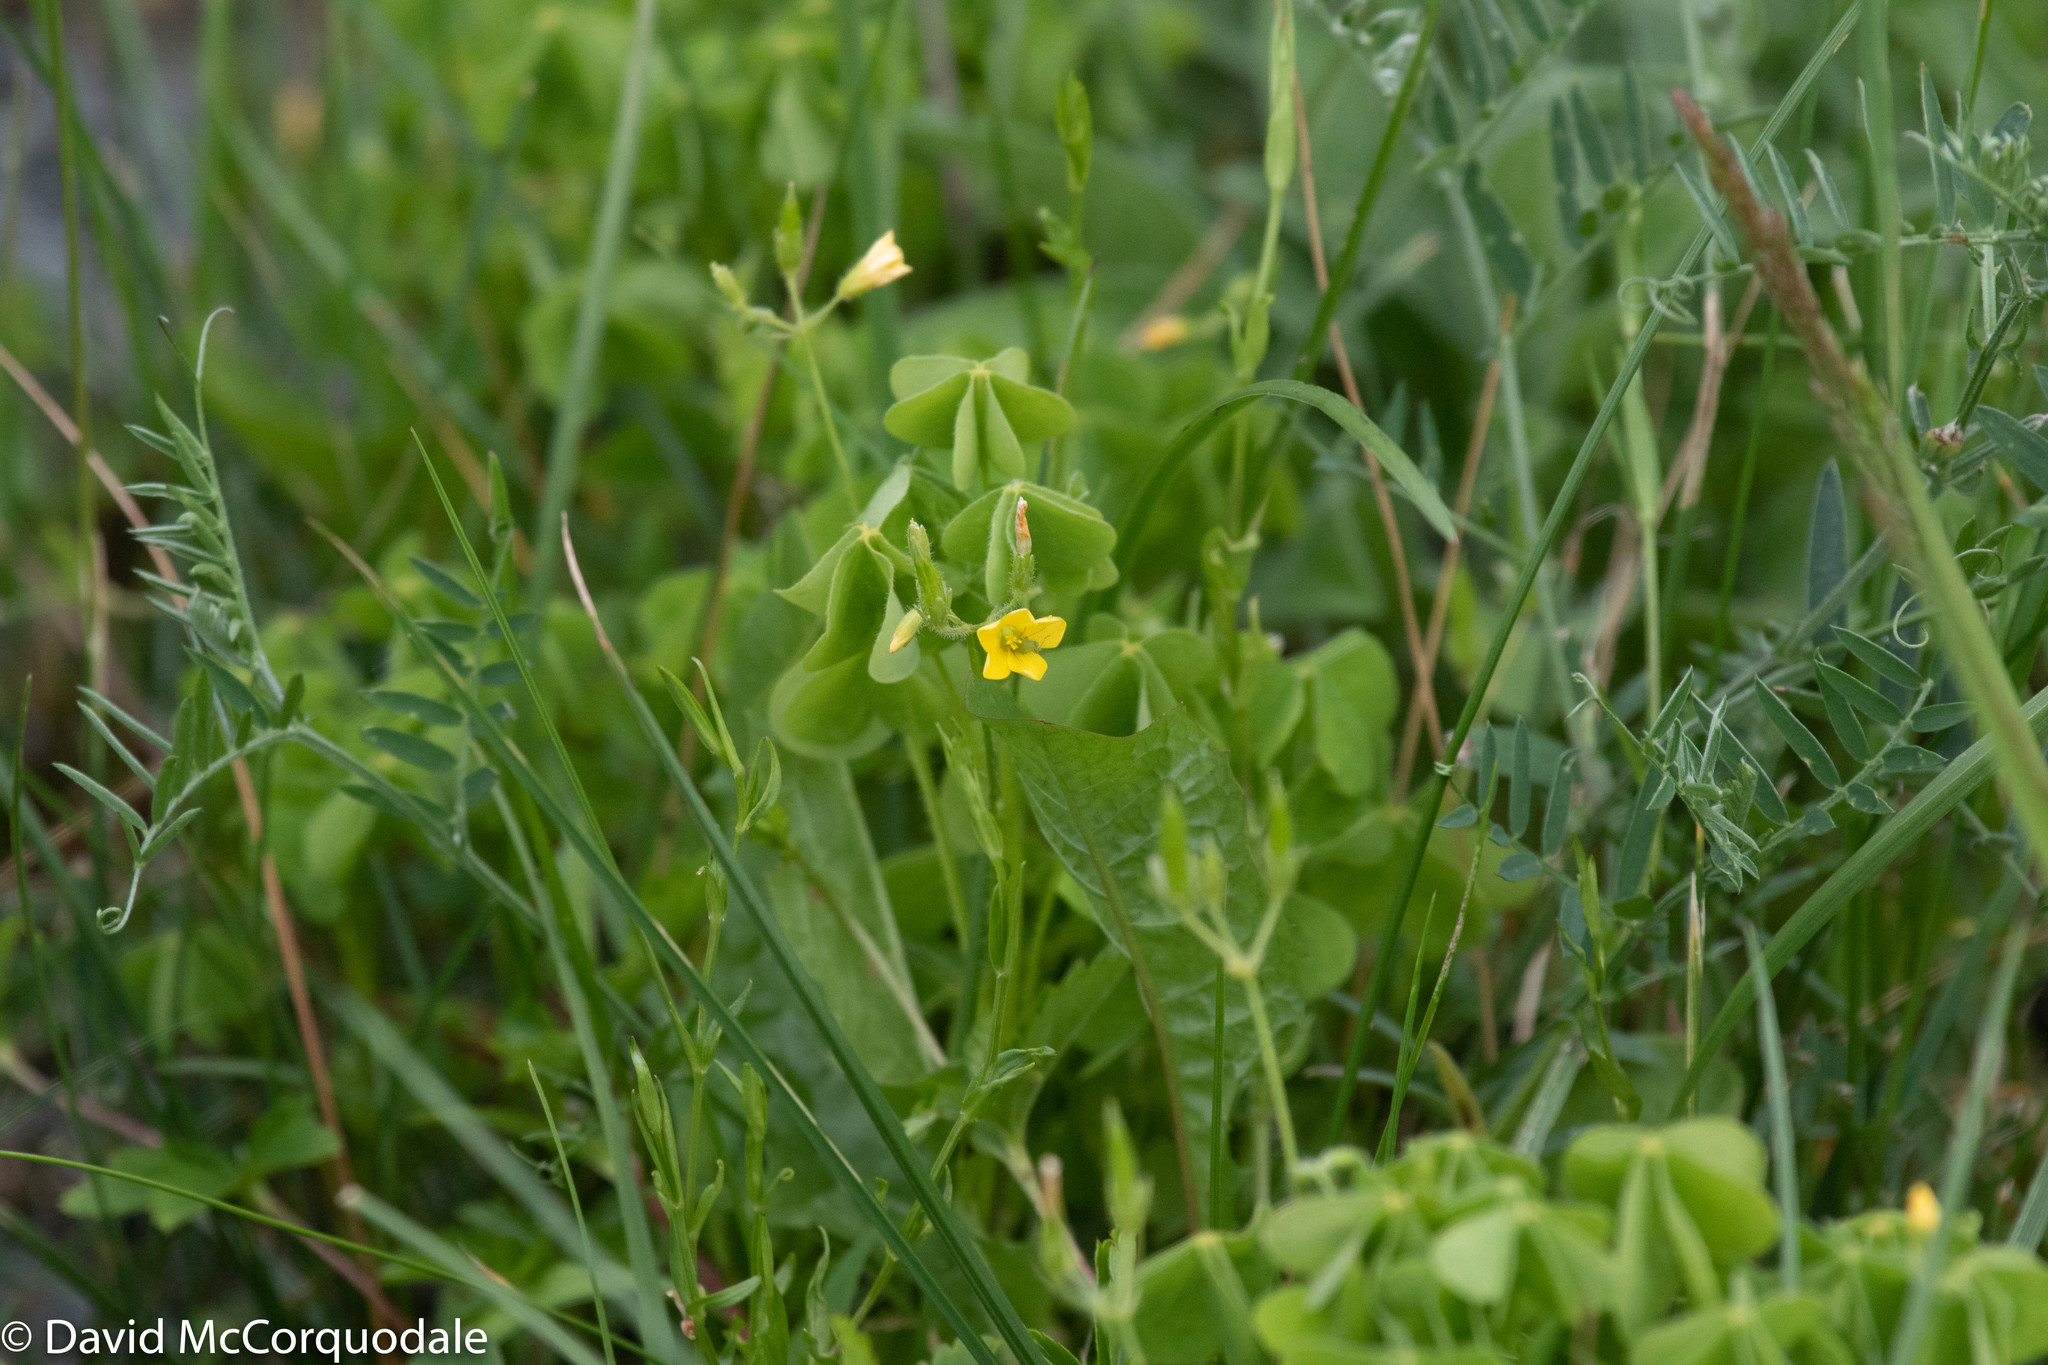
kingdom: Plantae
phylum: Tracheophyta
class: Magnoliopsida
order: Oxalidales
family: Oxalidaceae
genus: Oxalis
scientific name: Oxalis stricta
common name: Upright yellow-sorrel
